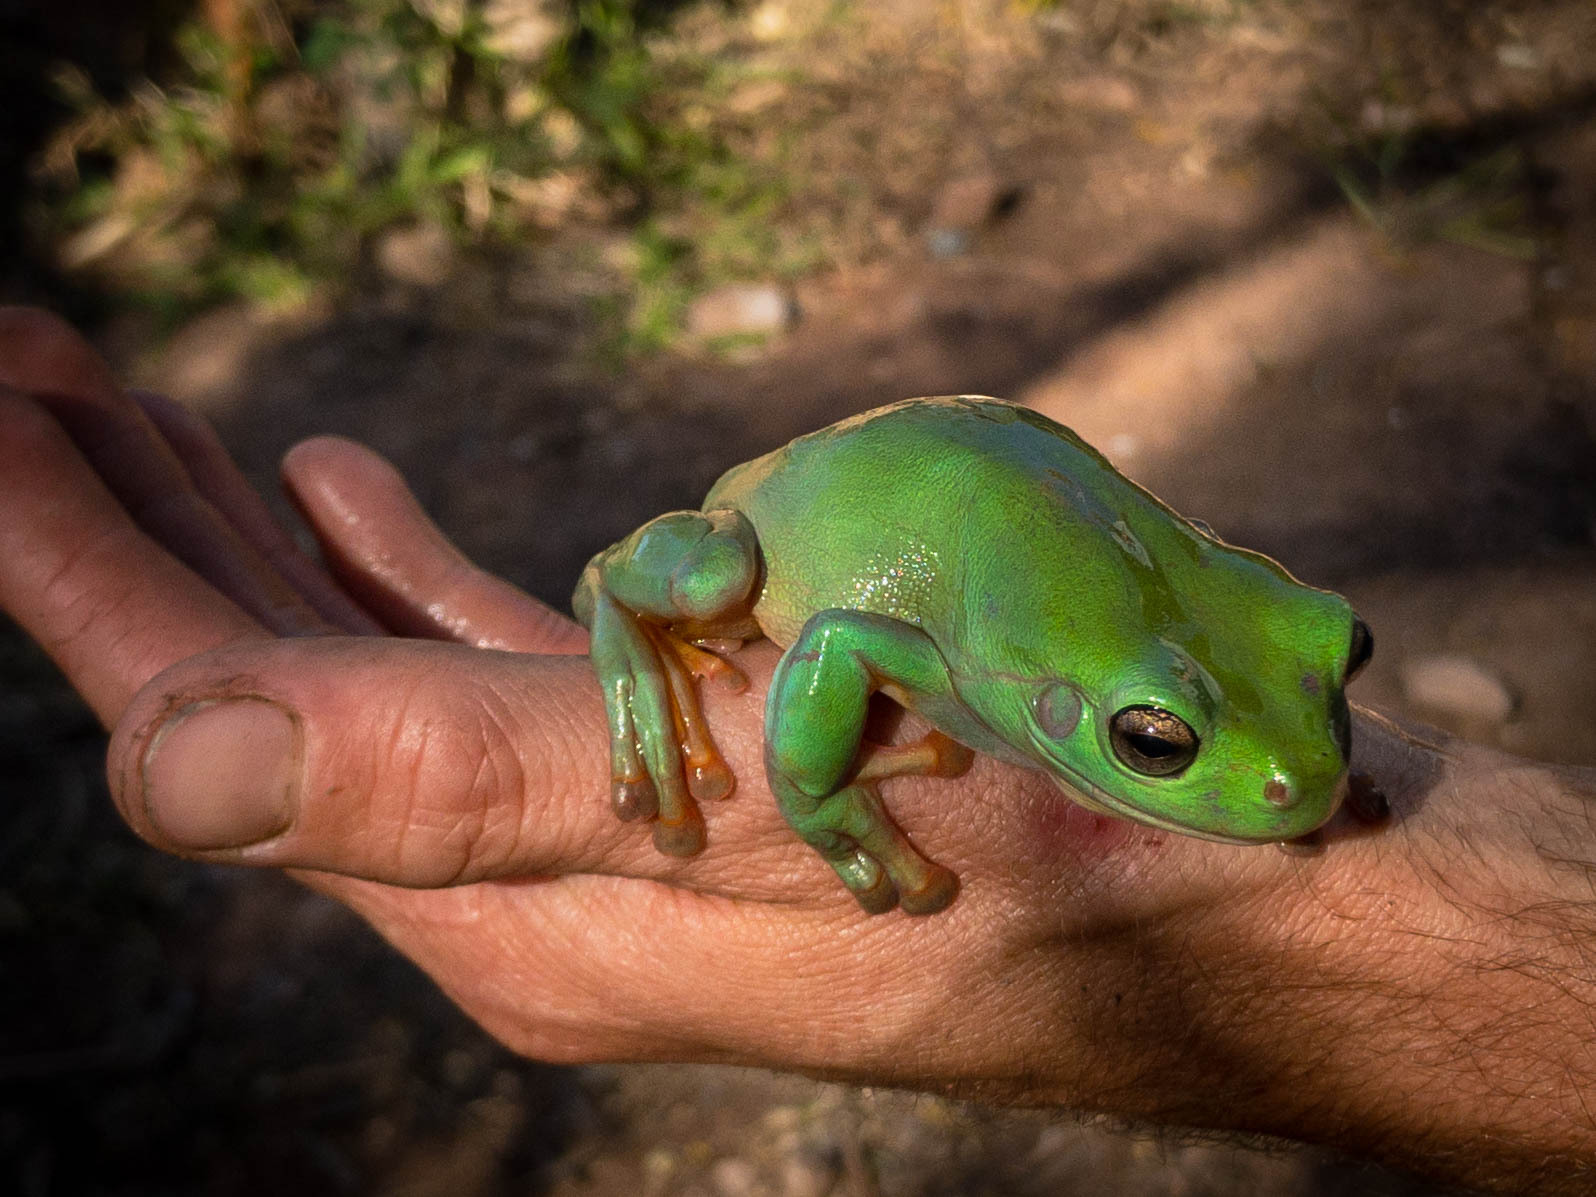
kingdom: Animalia
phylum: Chordata
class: Amphibia
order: Anura
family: Pelodryadidae
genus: Ranoidea
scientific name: Ranoidea caerulea
